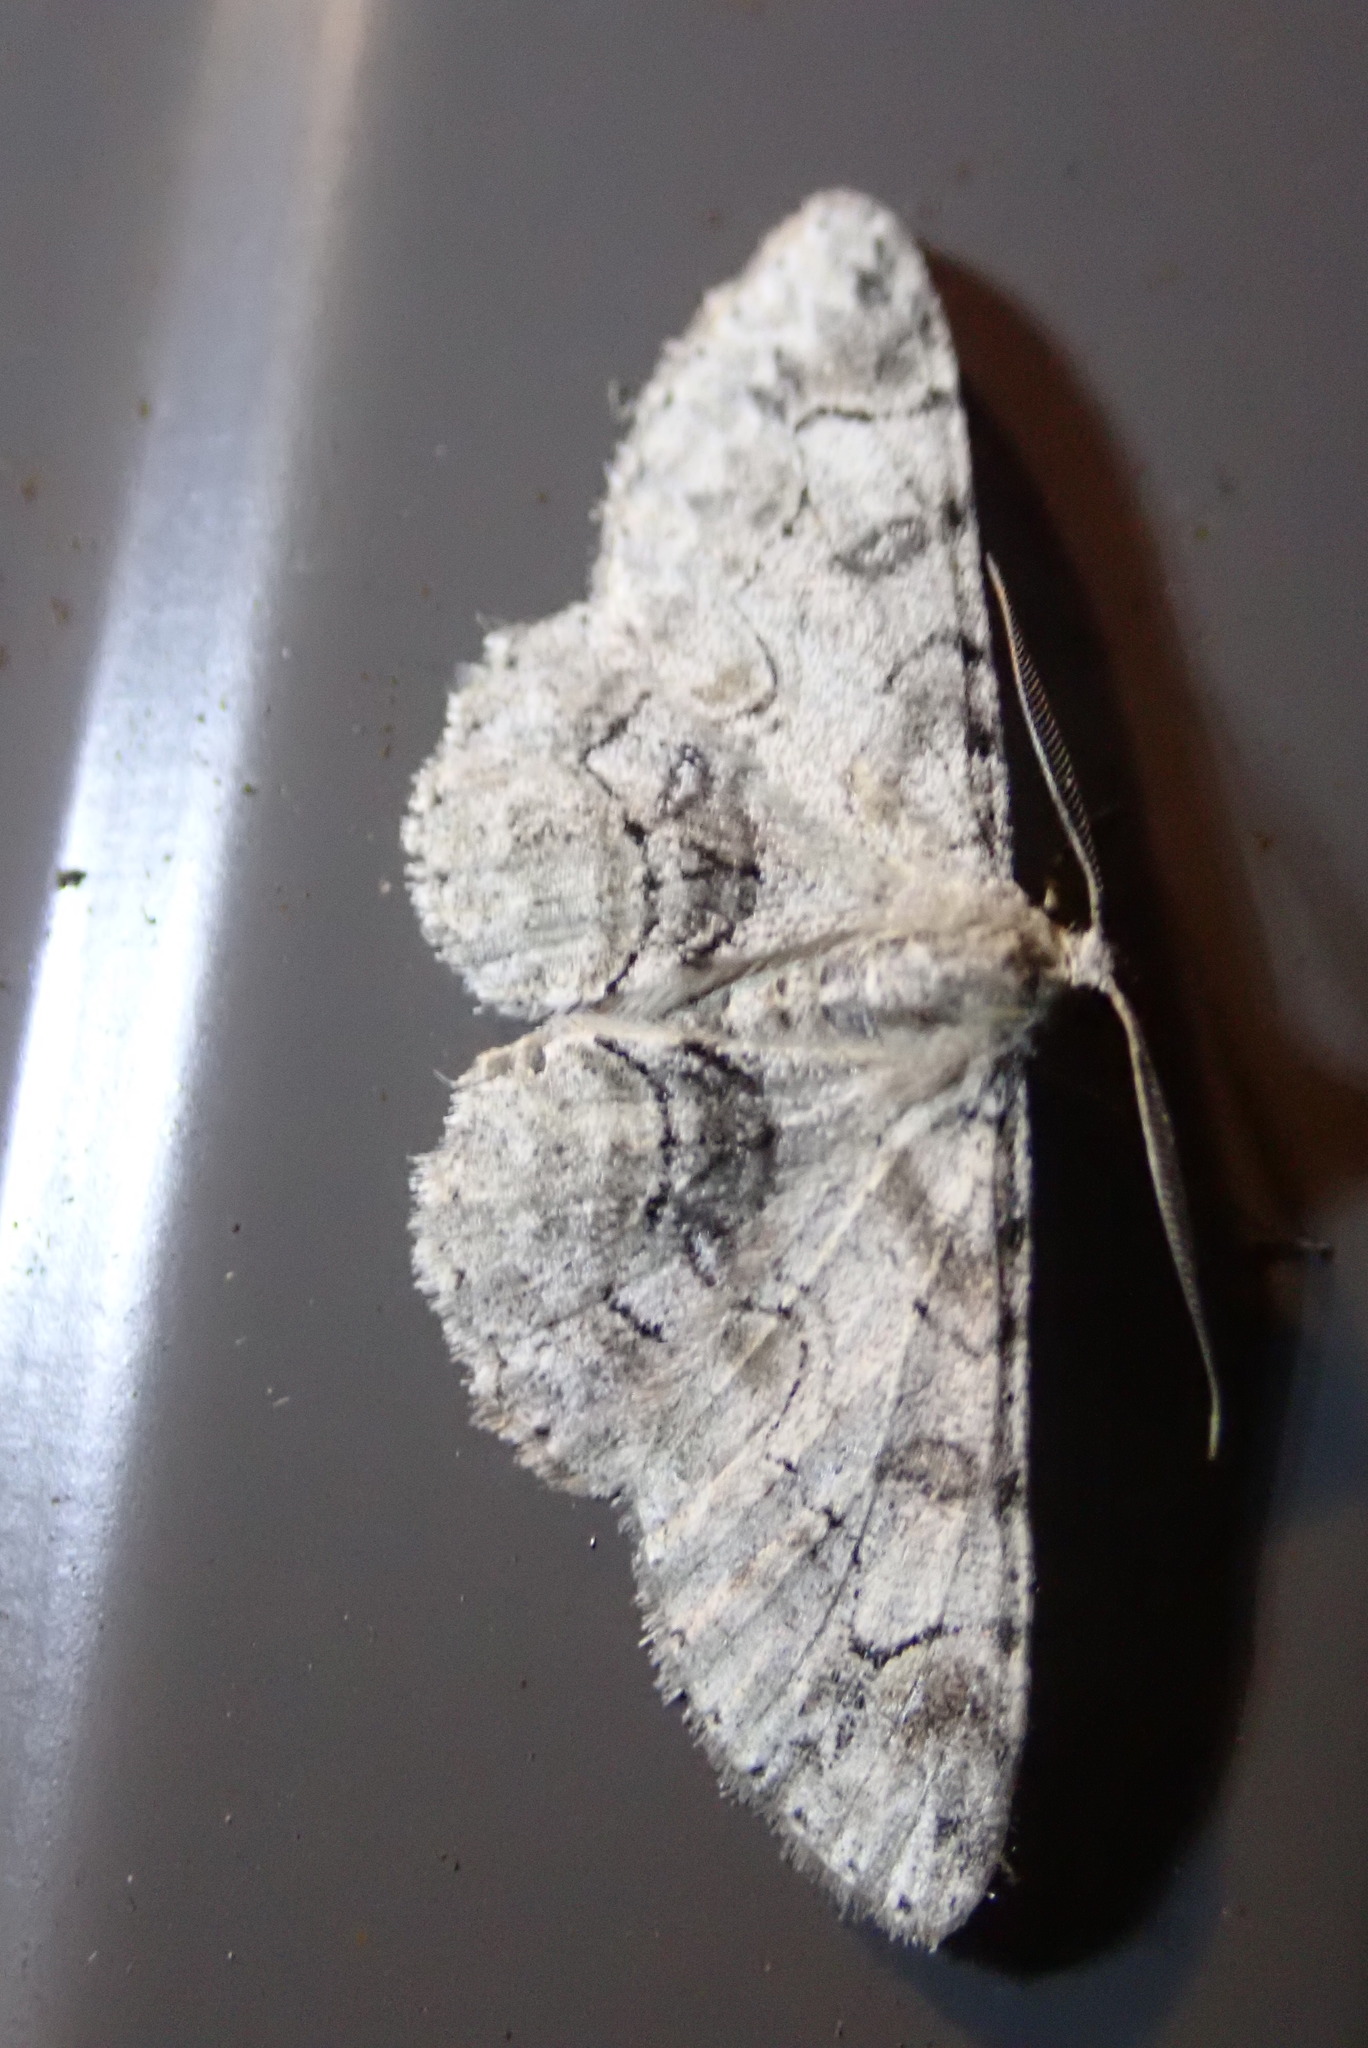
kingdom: Animalia
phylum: Arthropoda
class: Insecta
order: Lepidoptera
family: Geometridae
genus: Iridopsis
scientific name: Iridopsis larvaria
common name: Bent-line gray
